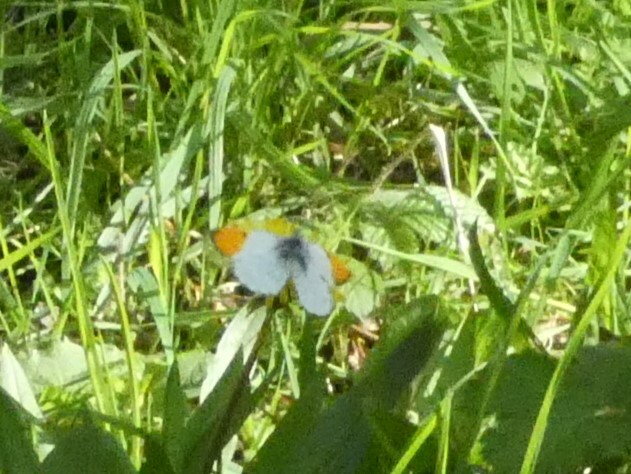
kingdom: Animalia
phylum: Arthropoda
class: Insecta
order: Lepidoptera
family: Pieridae
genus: Anthocharis
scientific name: Anthocharis cardamines
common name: Orange-tip
